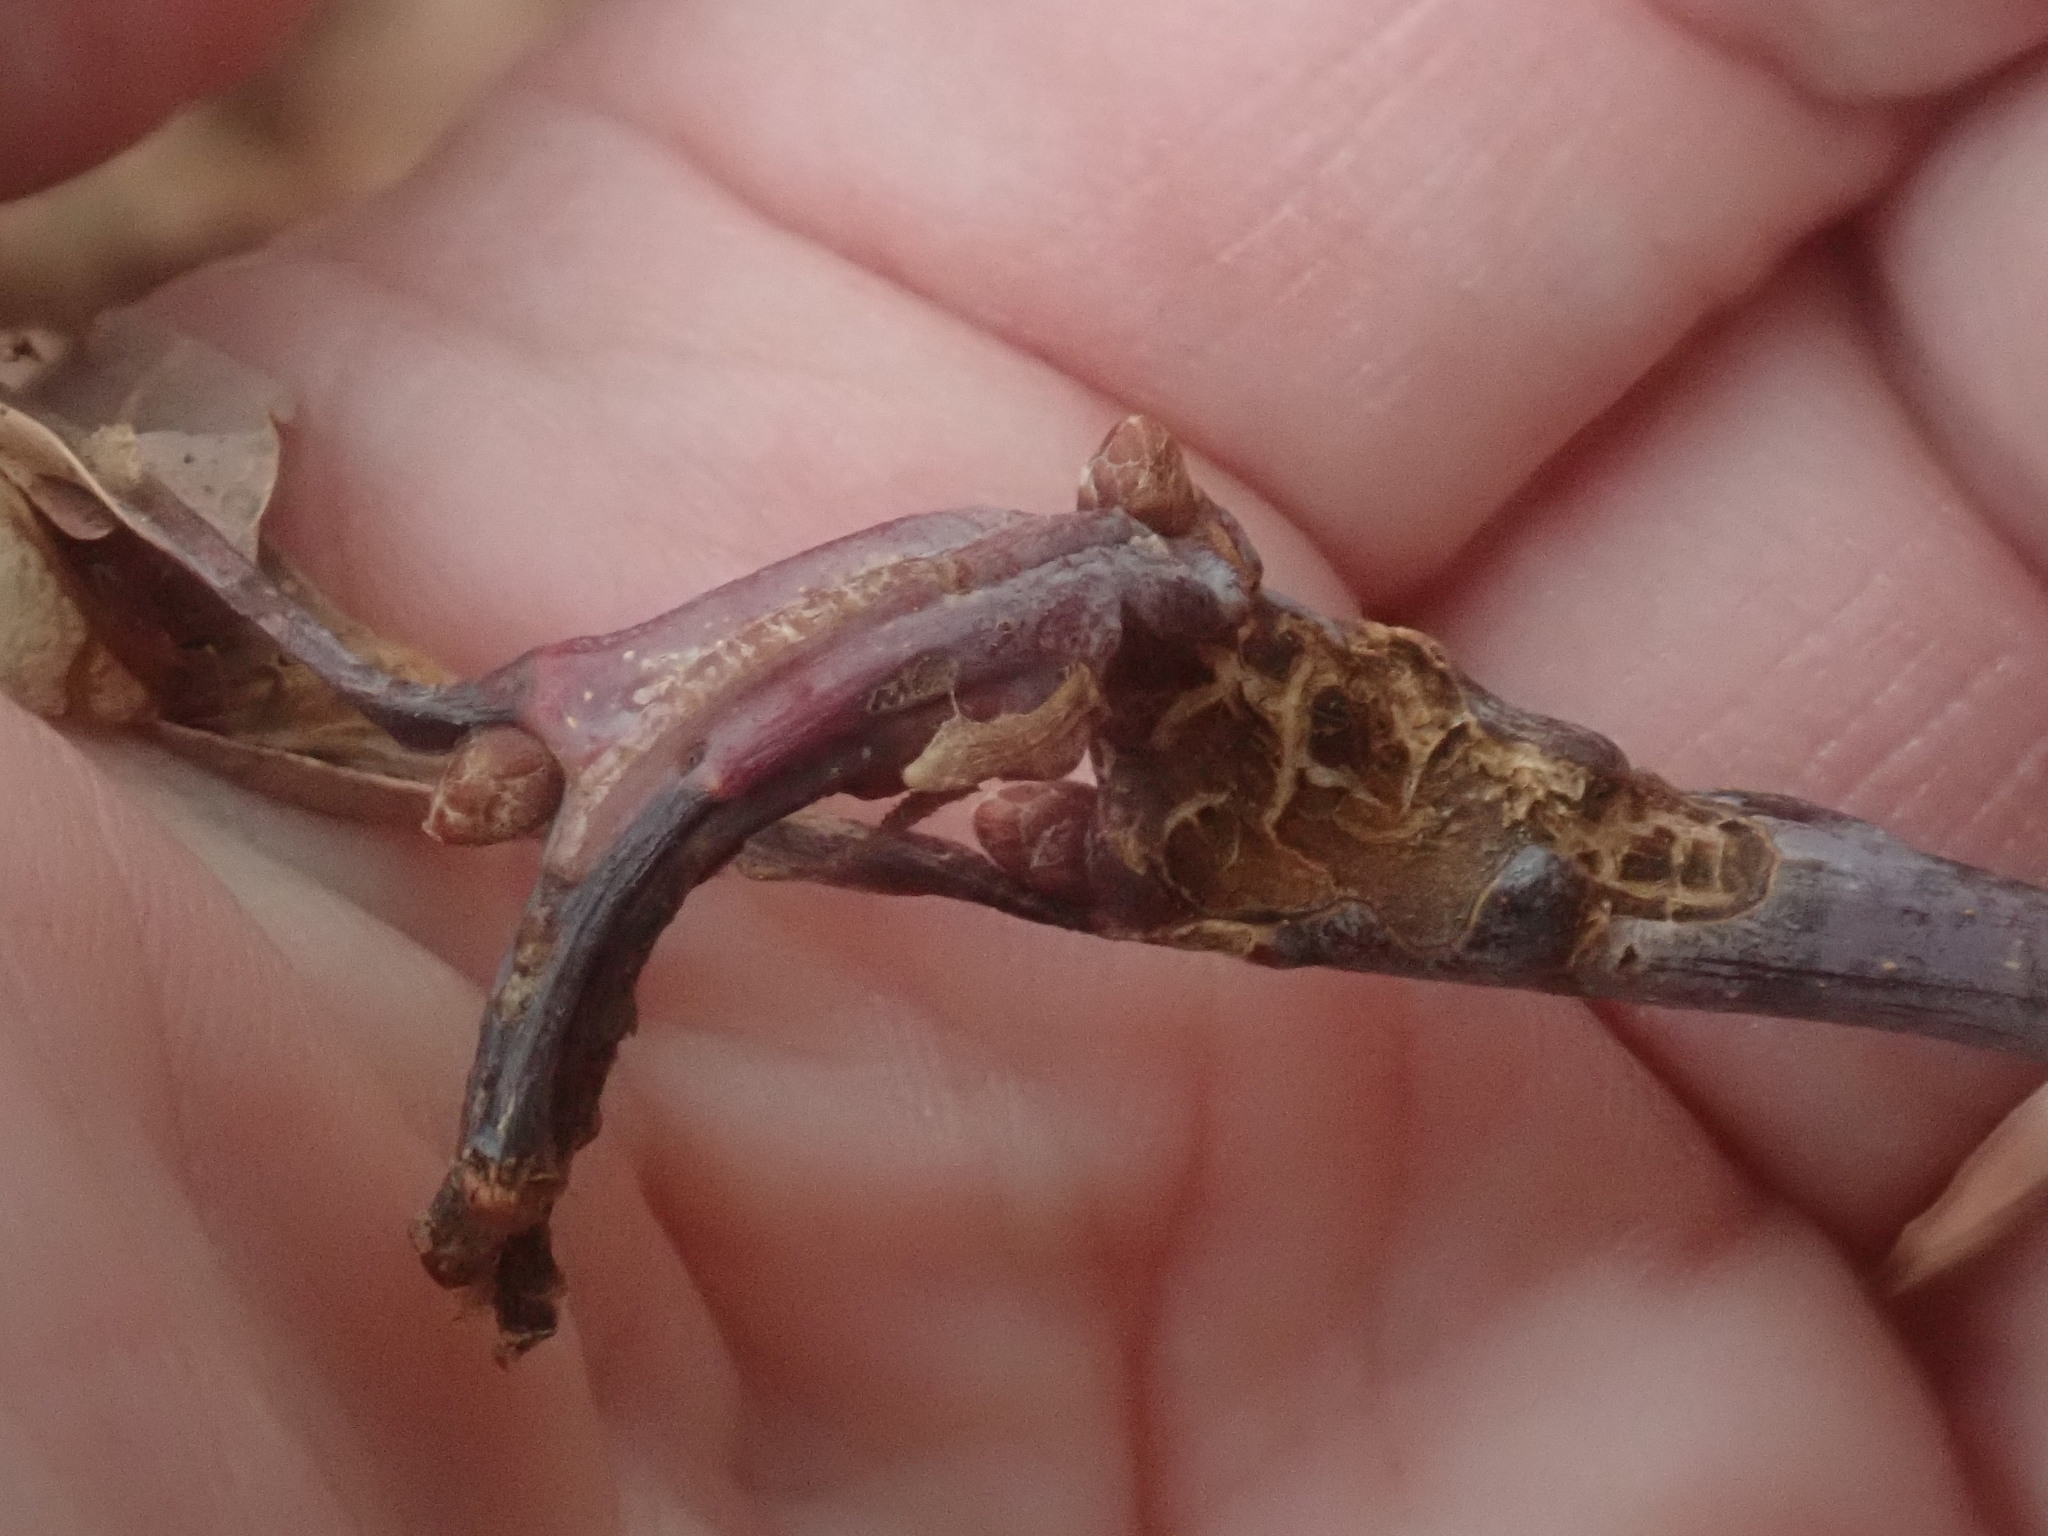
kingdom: Animalia
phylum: Arthropoda
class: Insecta
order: Hymenoptera
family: Cynipidae
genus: Neuroterus
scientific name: Neuroterus quercusbaccarum
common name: Common spangle gall
